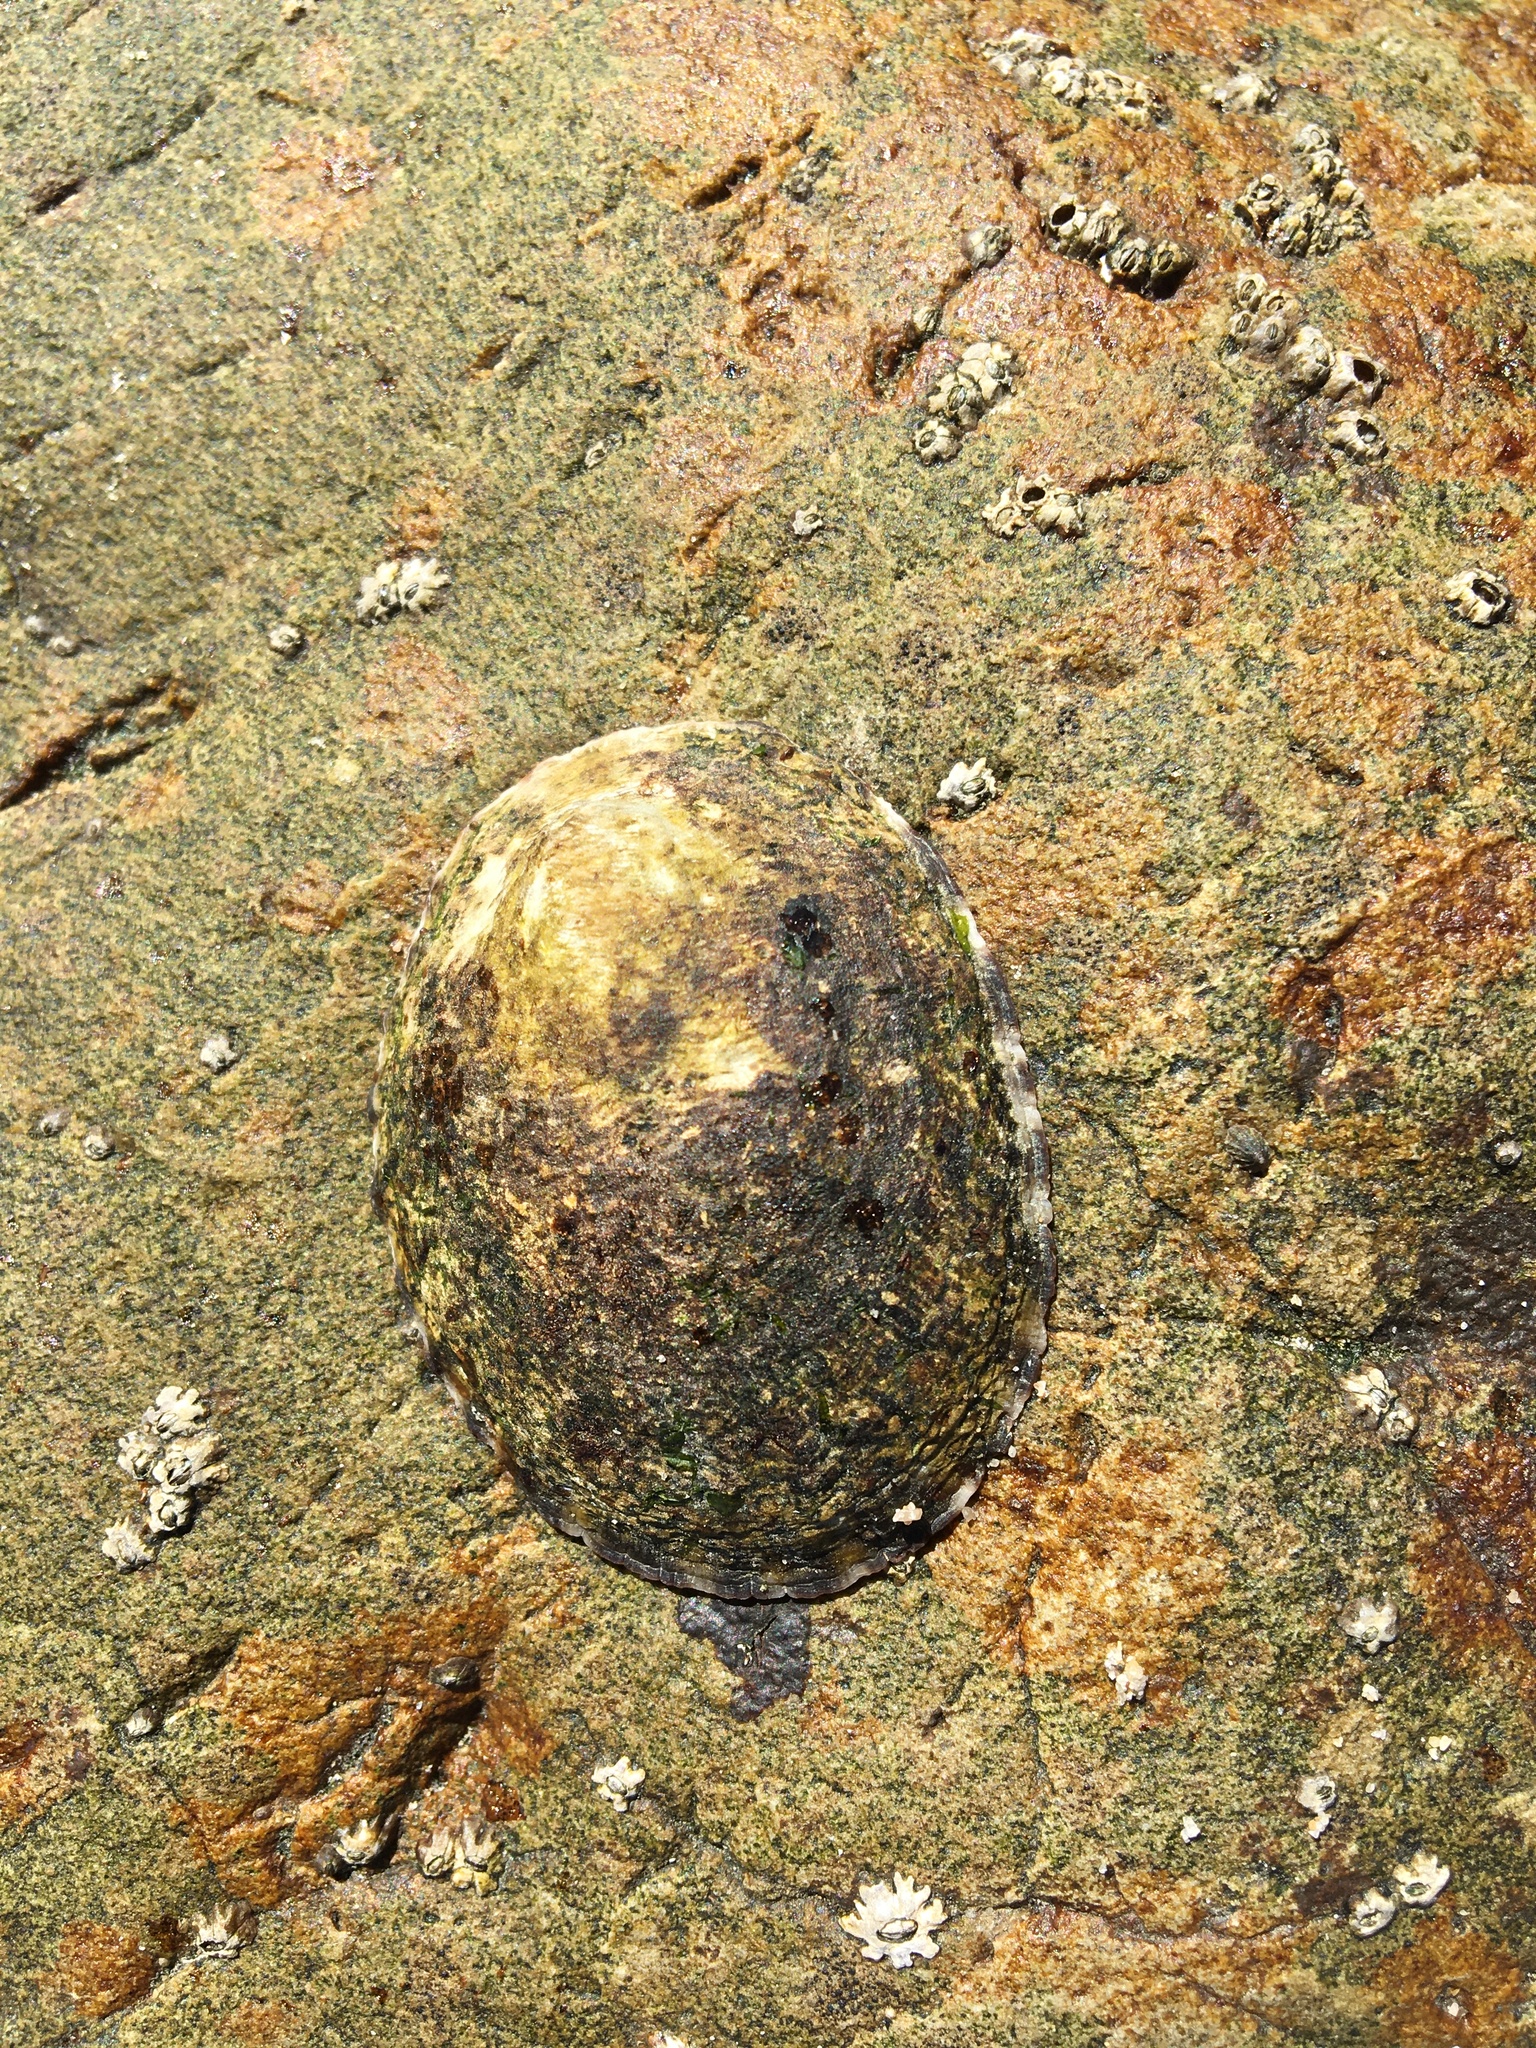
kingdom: Animalia
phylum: Mollusca
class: Gastropoda
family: Lottiidae
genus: Lottia
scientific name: Lottia gigantea
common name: Owl limpet
